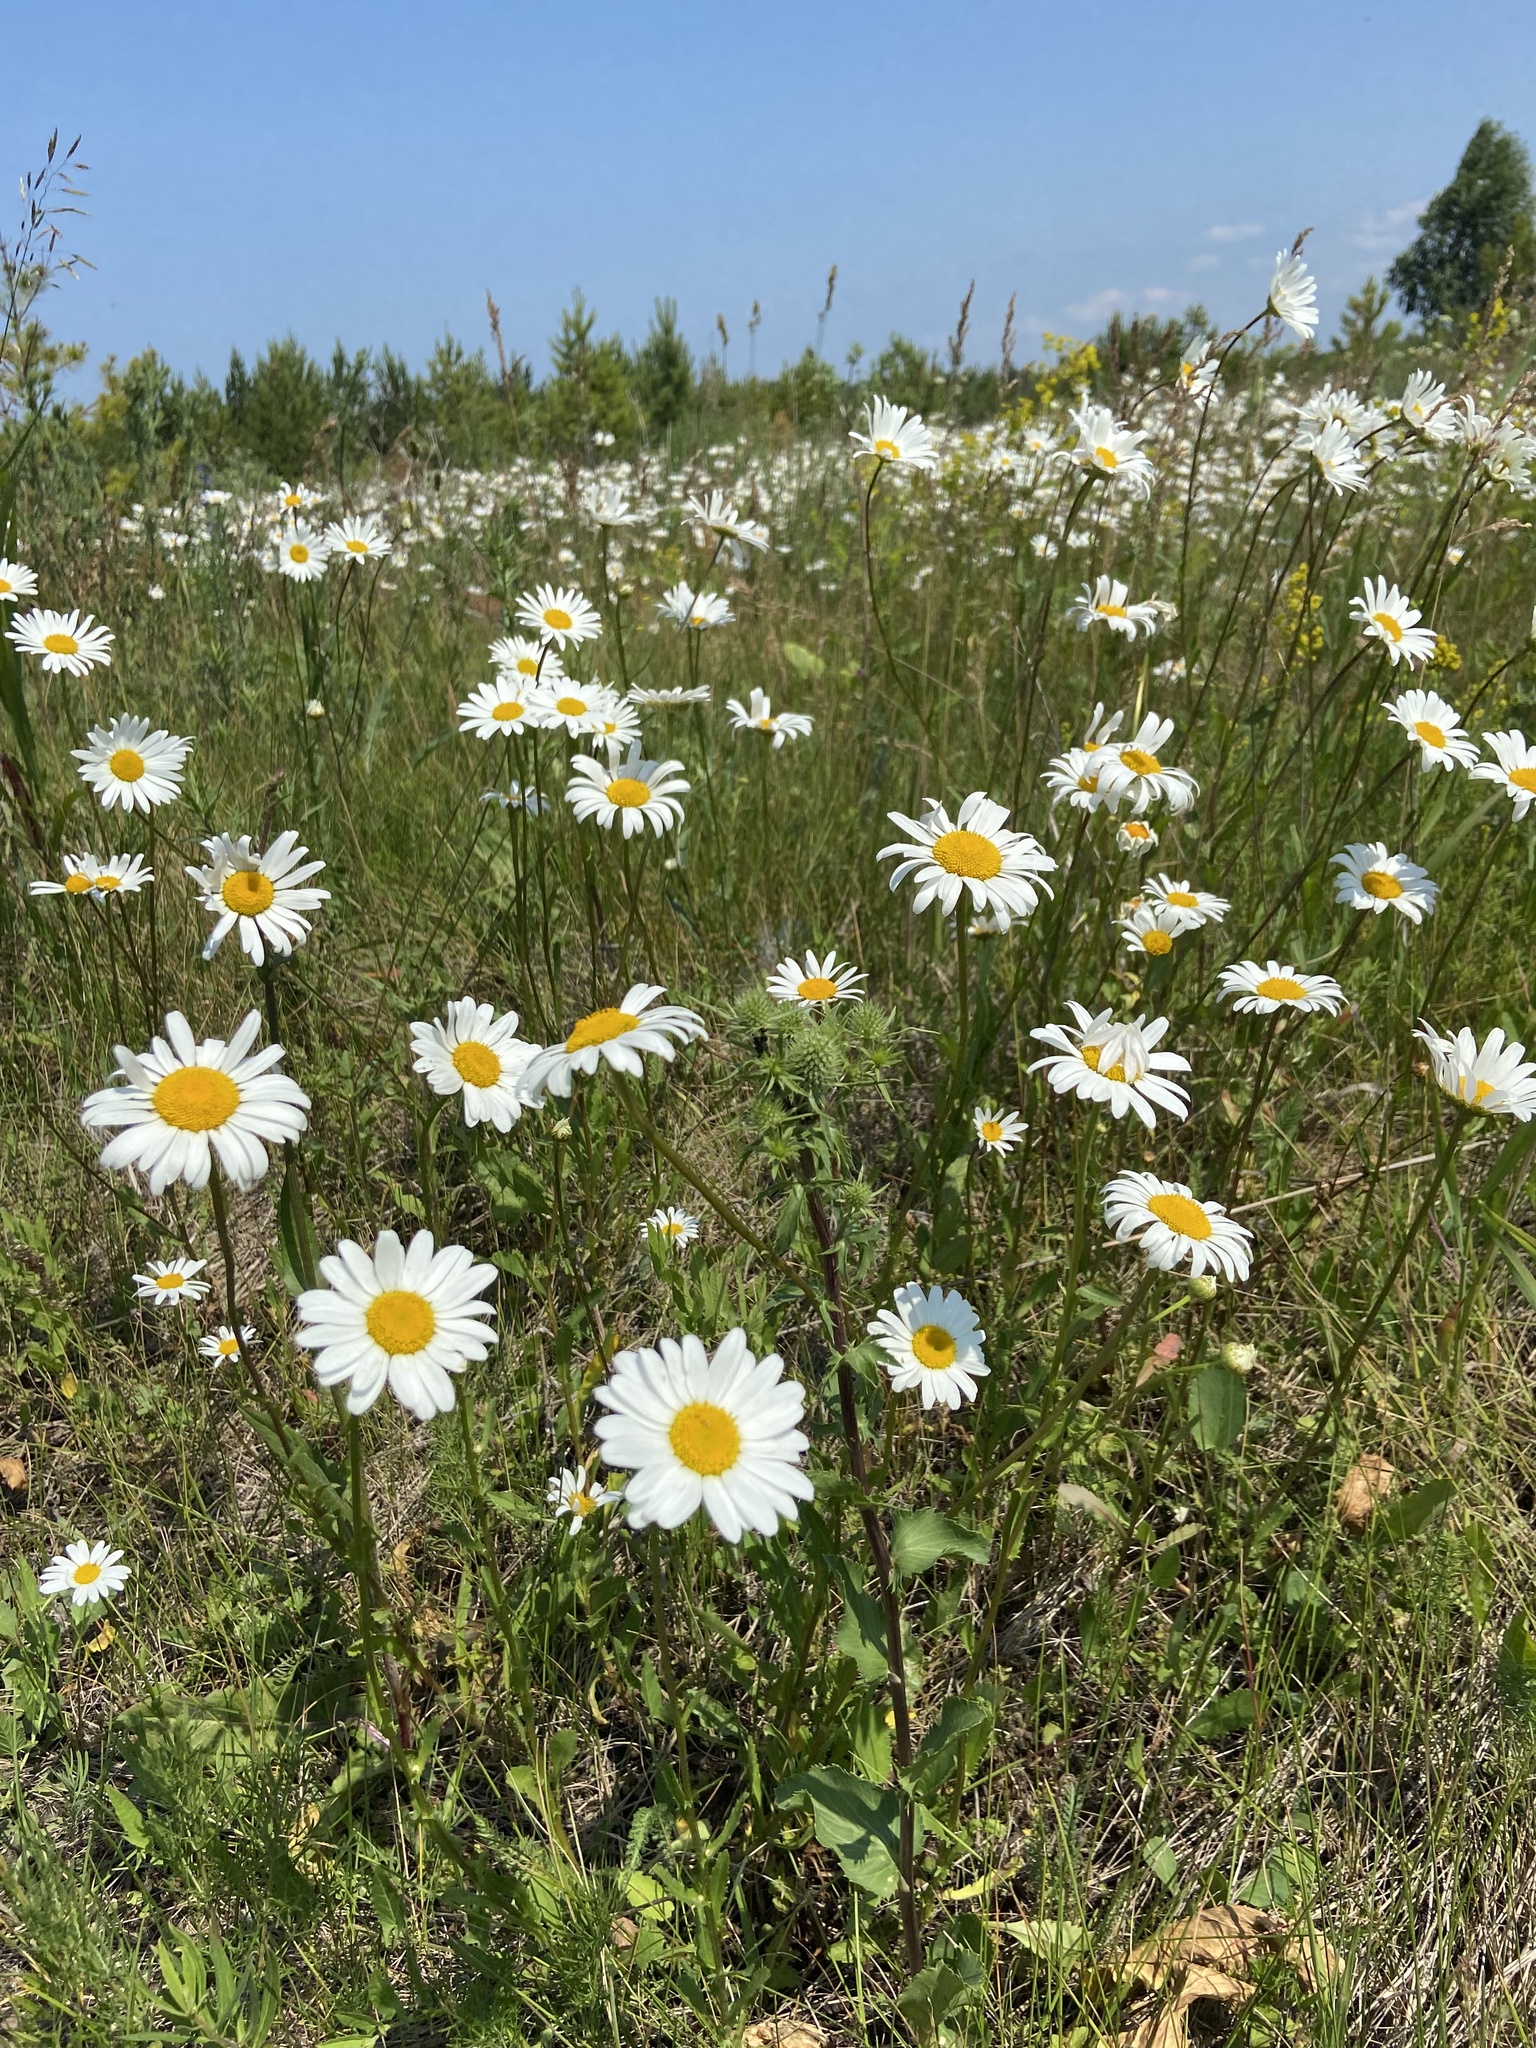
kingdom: Plantae
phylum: Tracheophyta
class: Magnoliopsida
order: Asterales
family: Asteraceae
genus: Leucanthemum
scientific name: Leucanthemum vulgare
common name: Oxeye daisy
